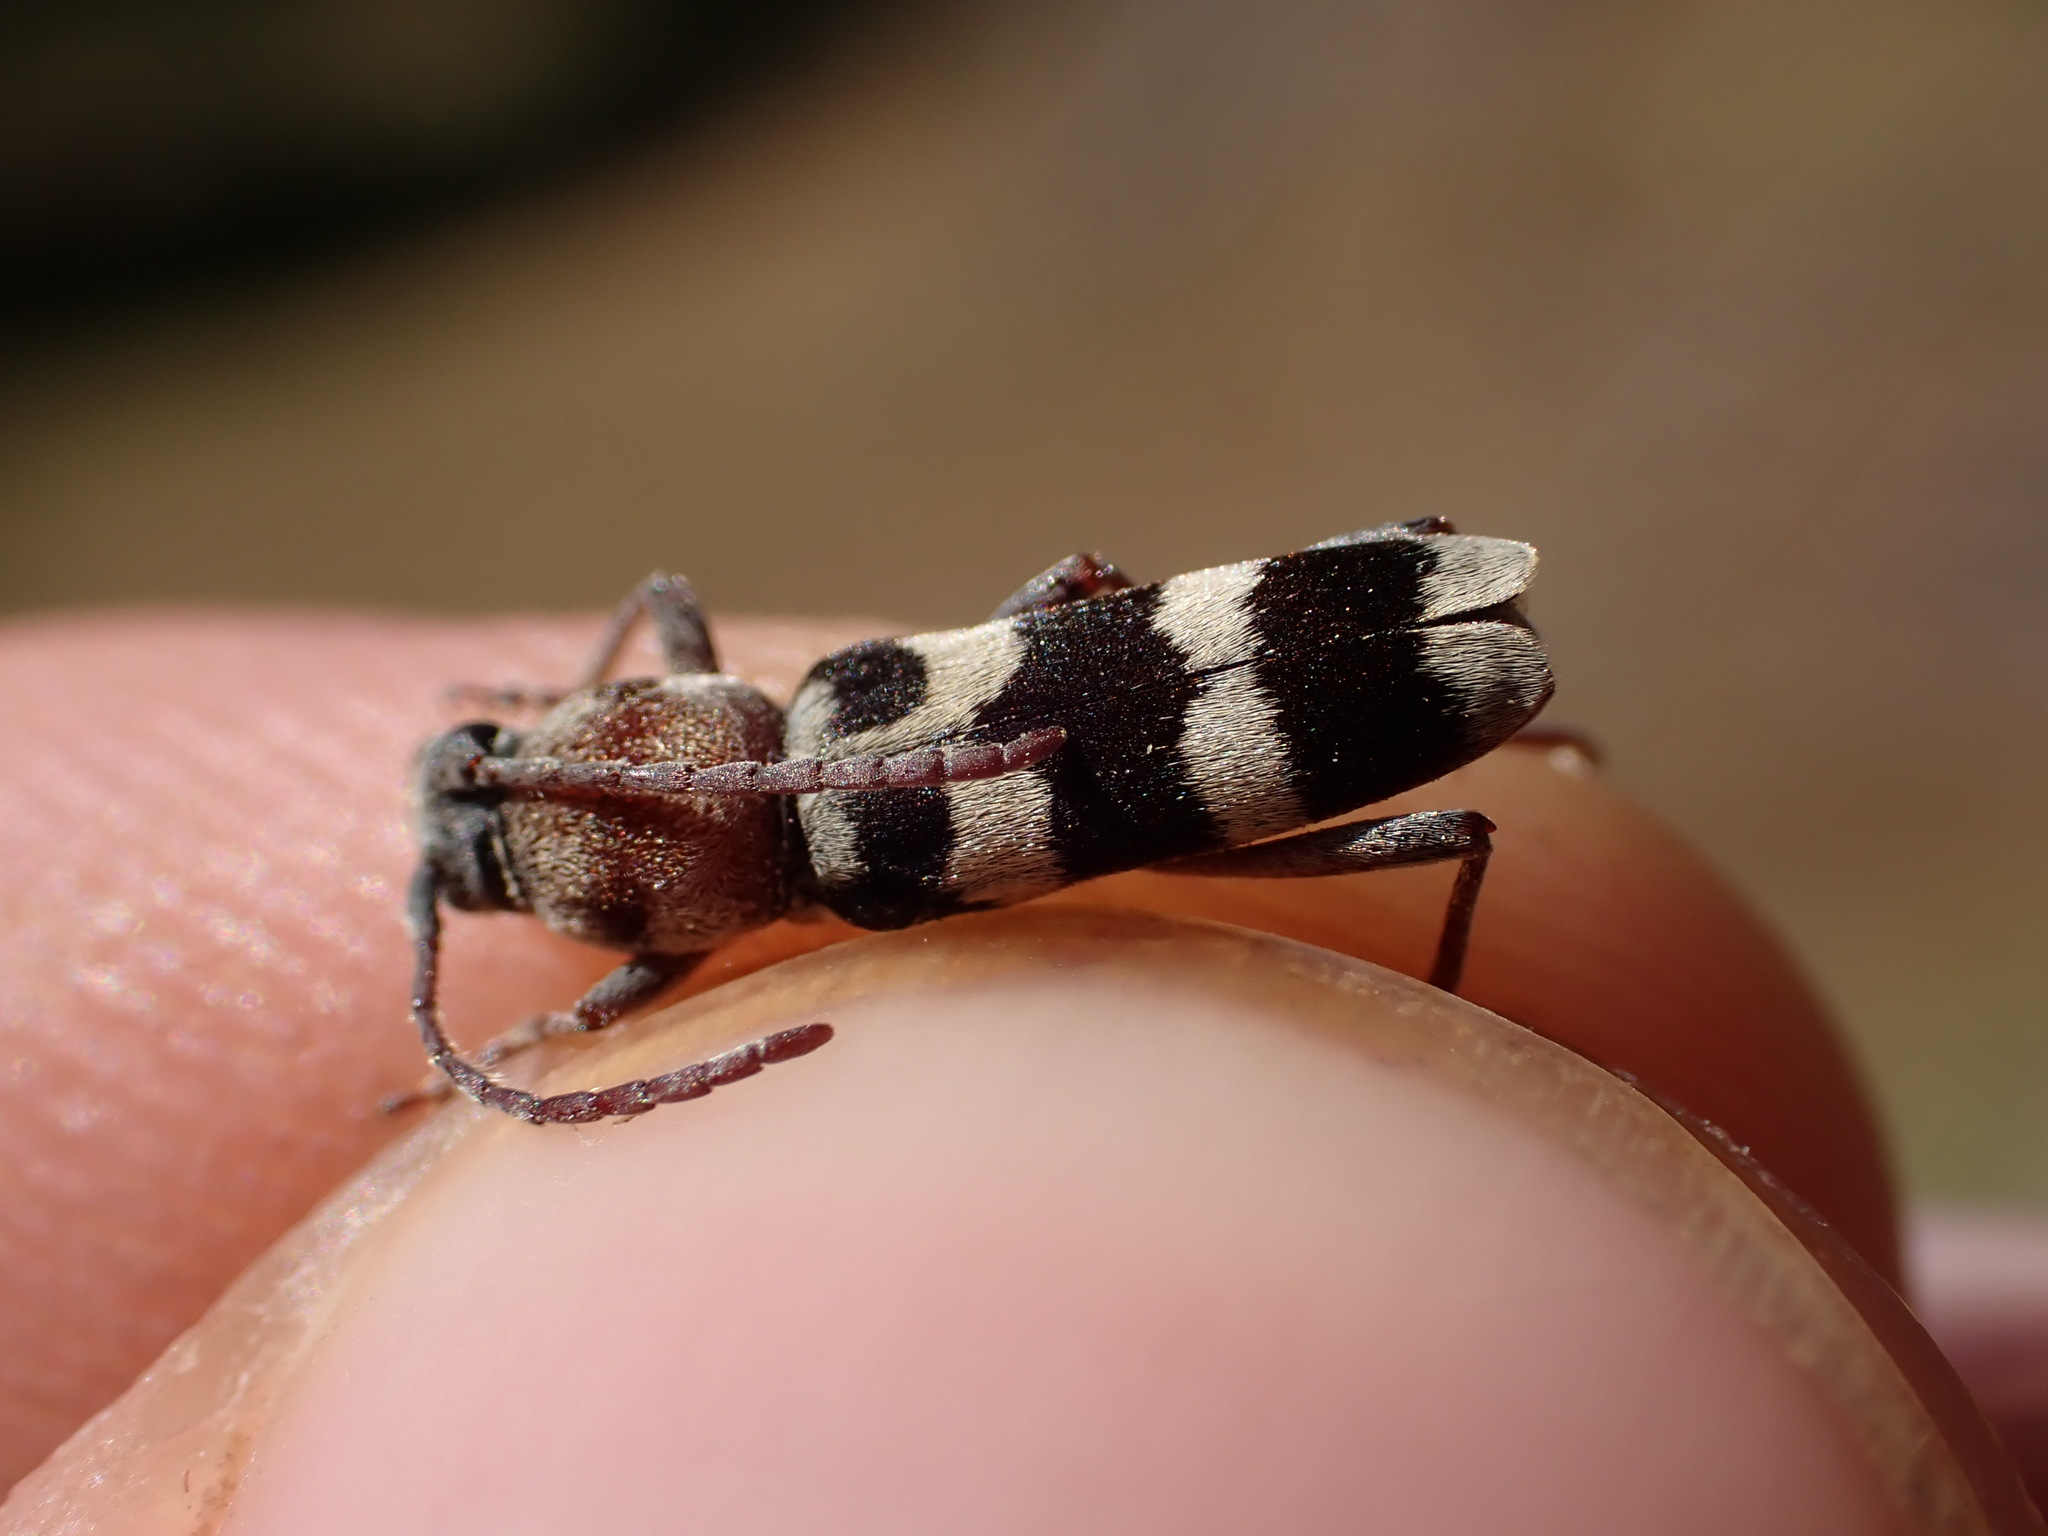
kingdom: Animalia
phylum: Arthropoda
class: Insecta
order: Coleoptera
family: Cerambycidae
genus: Chlorophorus
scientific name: Chlorophorus trifasciatus
